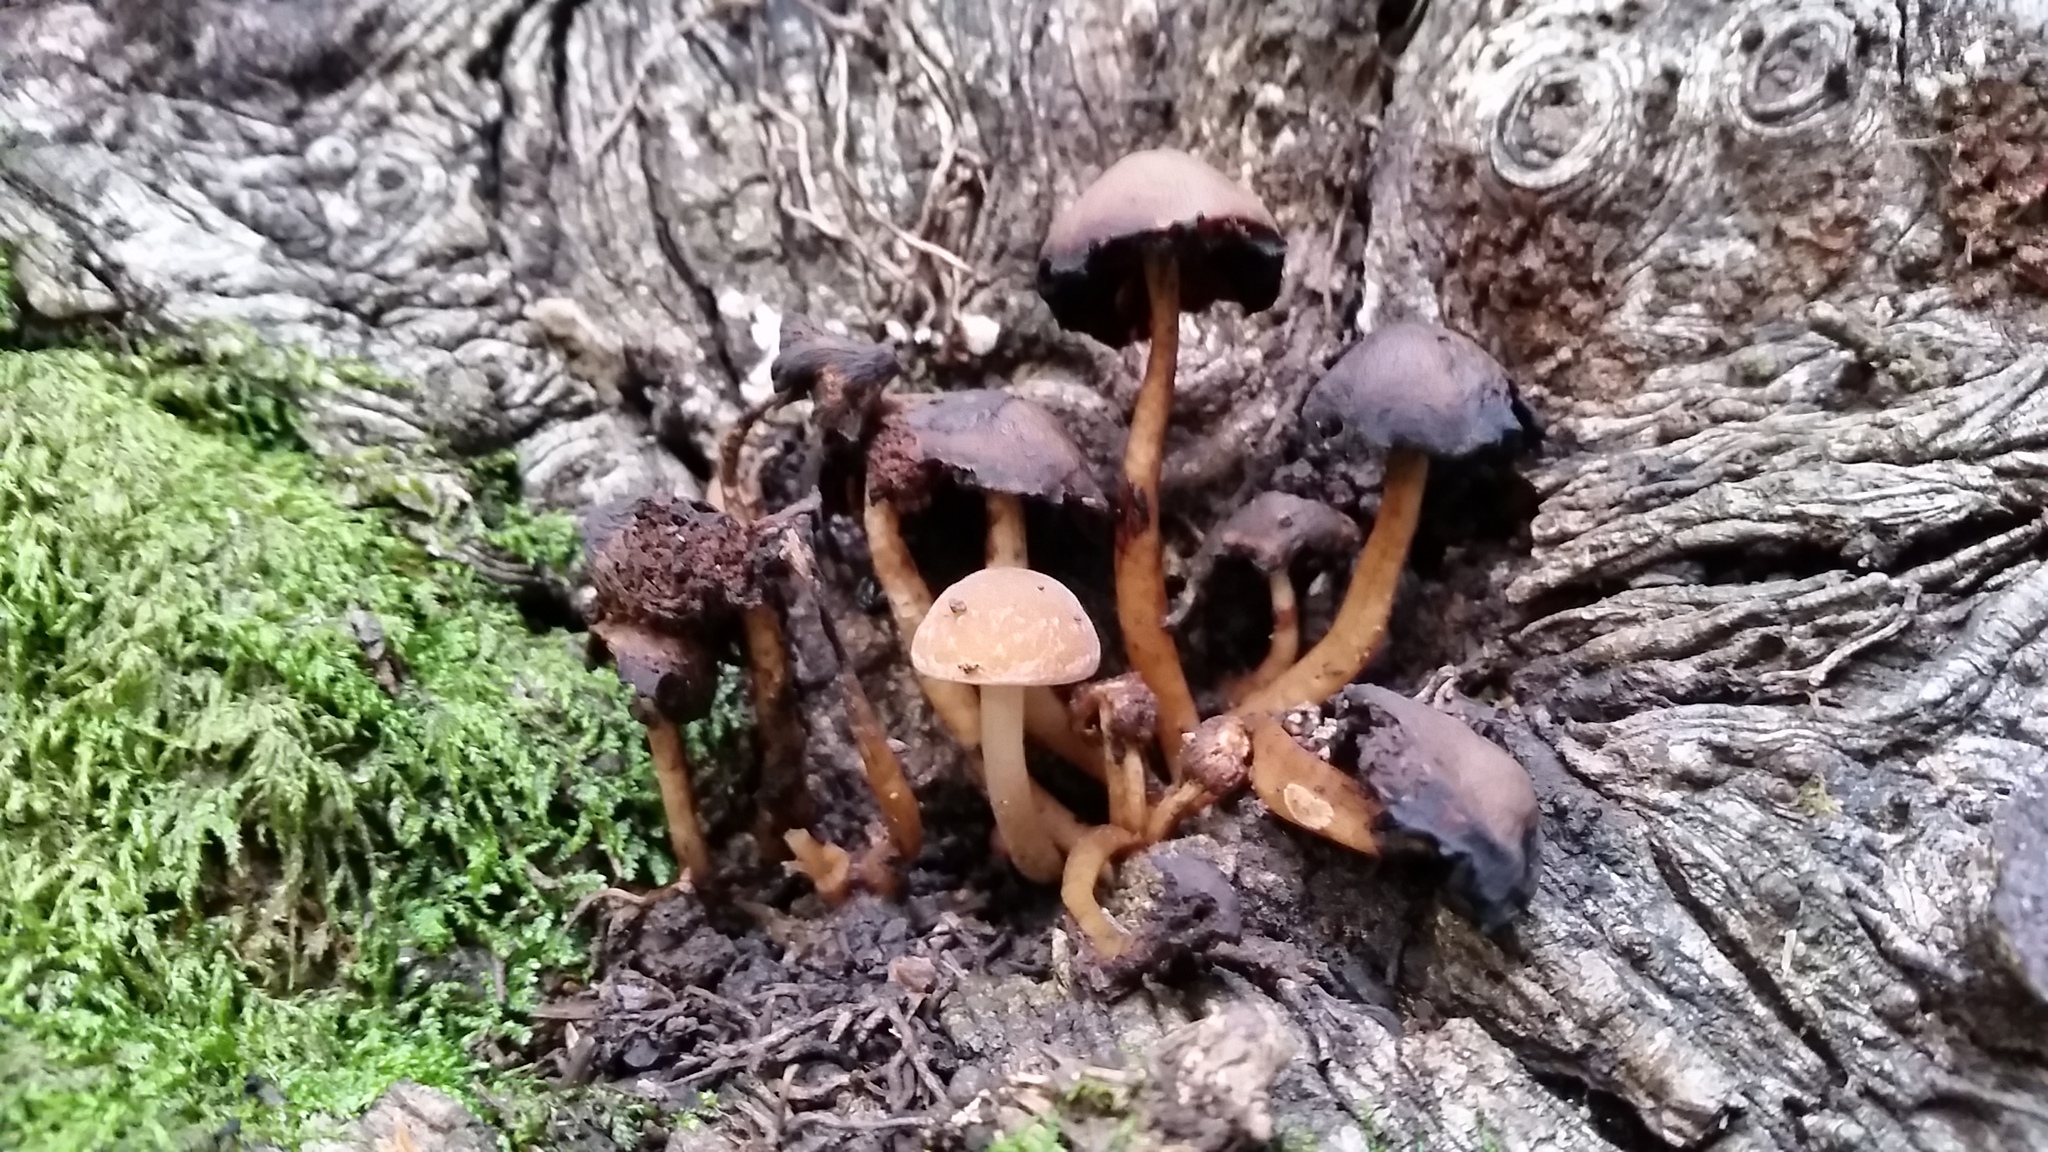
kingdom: Fungi
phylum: Basidiomycota
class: Agaricomycetes
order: Agaricales
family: Psathyrellaceae
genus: Psathyrella
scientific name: Psathyrella piluliformis
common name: Common stump brittlestem
